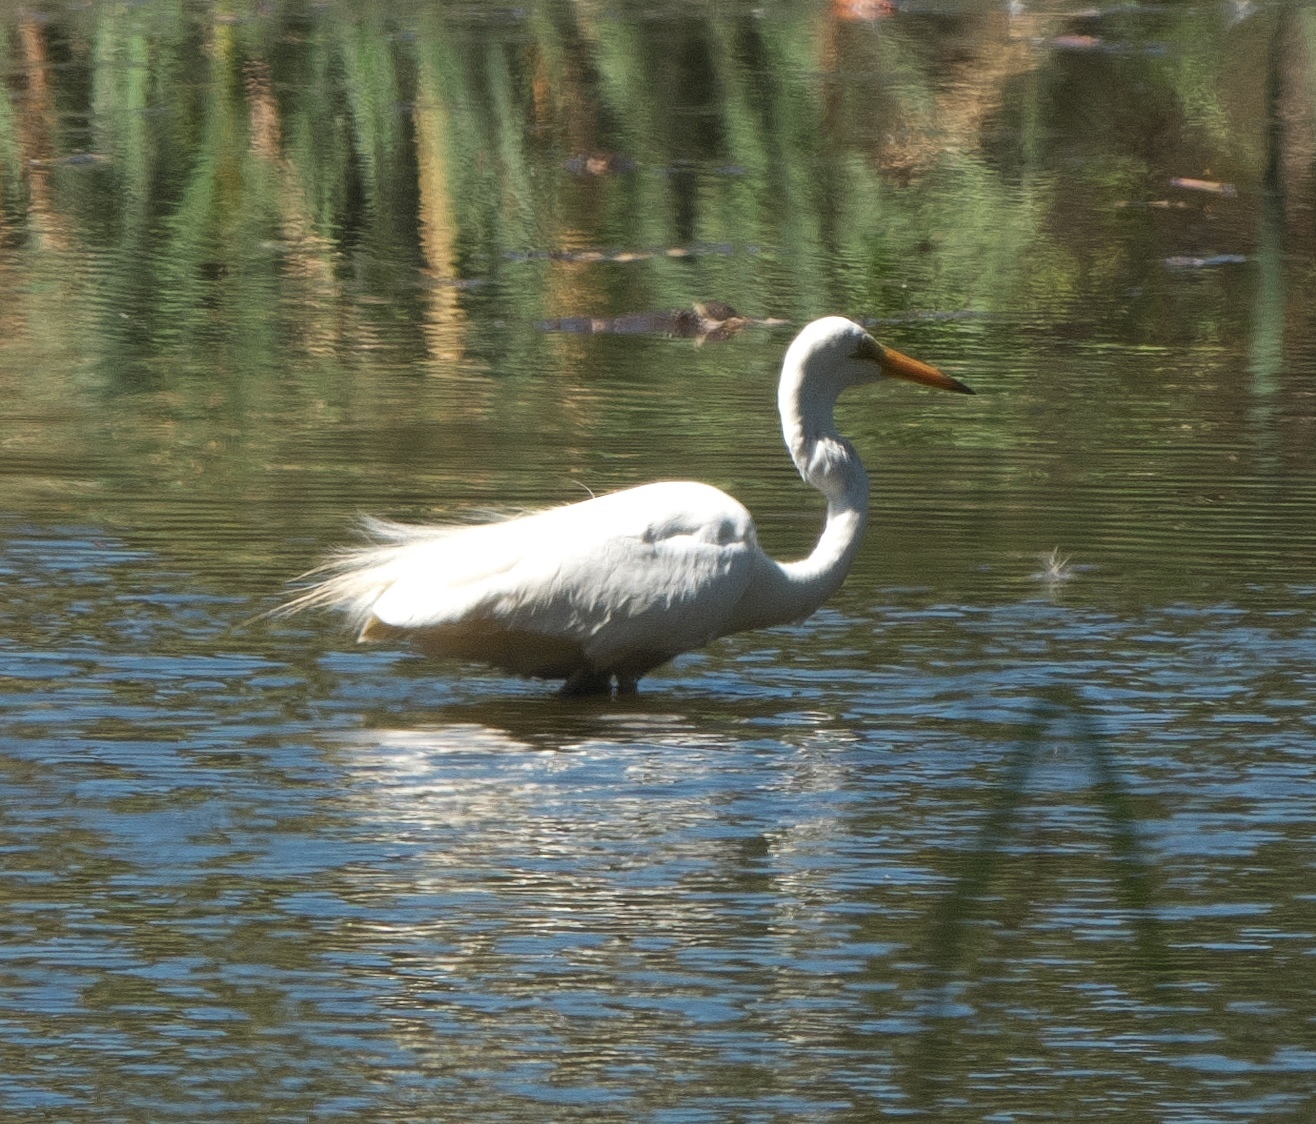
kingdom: Animalia
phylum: Chordata
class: Aves
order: Pelecaniformes
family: Ardeidae
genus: Ardea
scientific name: Ardea alba
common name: Great egret
